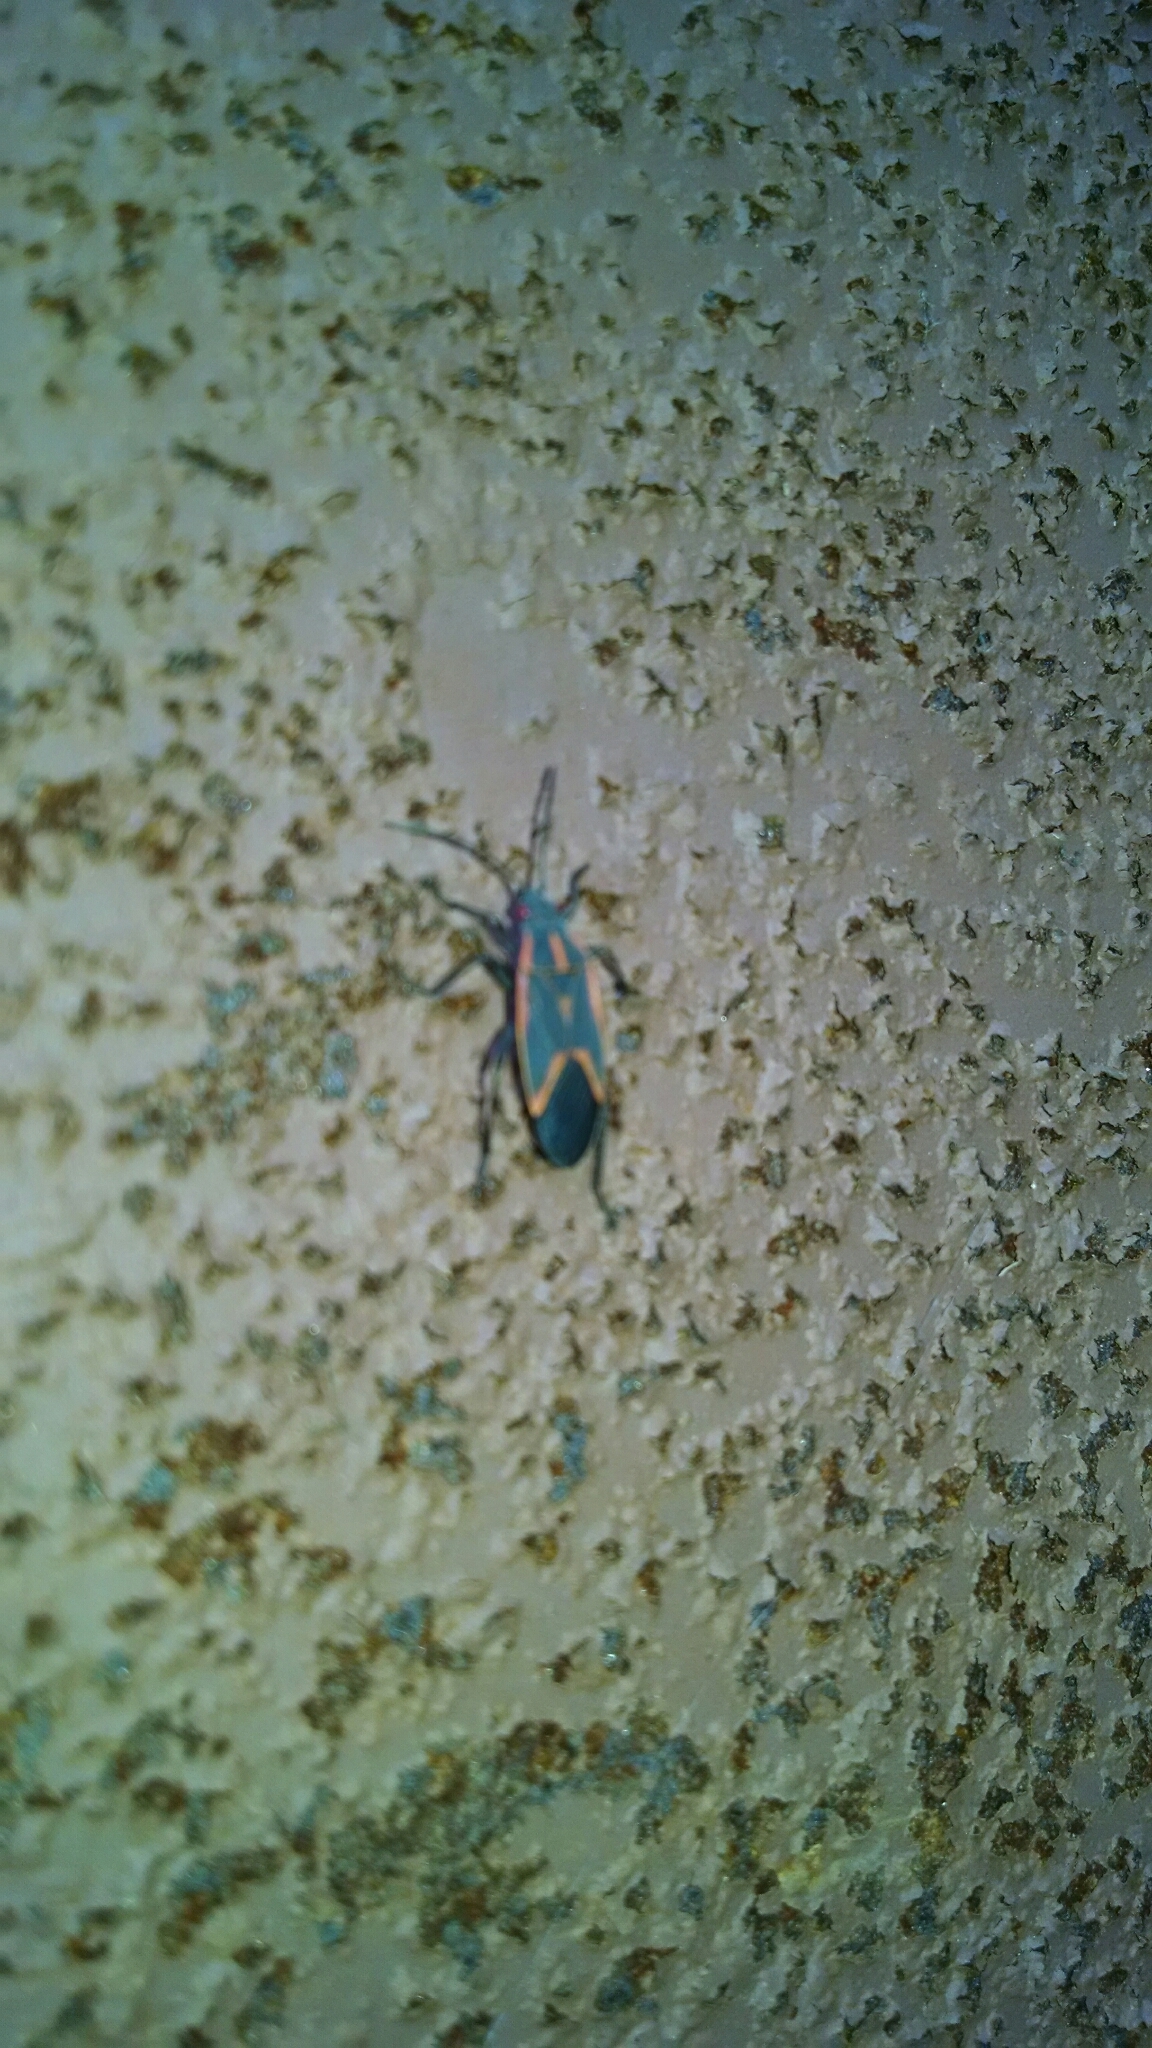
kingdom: Animalia
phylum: Arthropoda
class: Insecta
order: Hemiptera
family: Rhopalidae
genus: Boisea
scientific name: Boisea trivittata
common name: Boxelder bug
